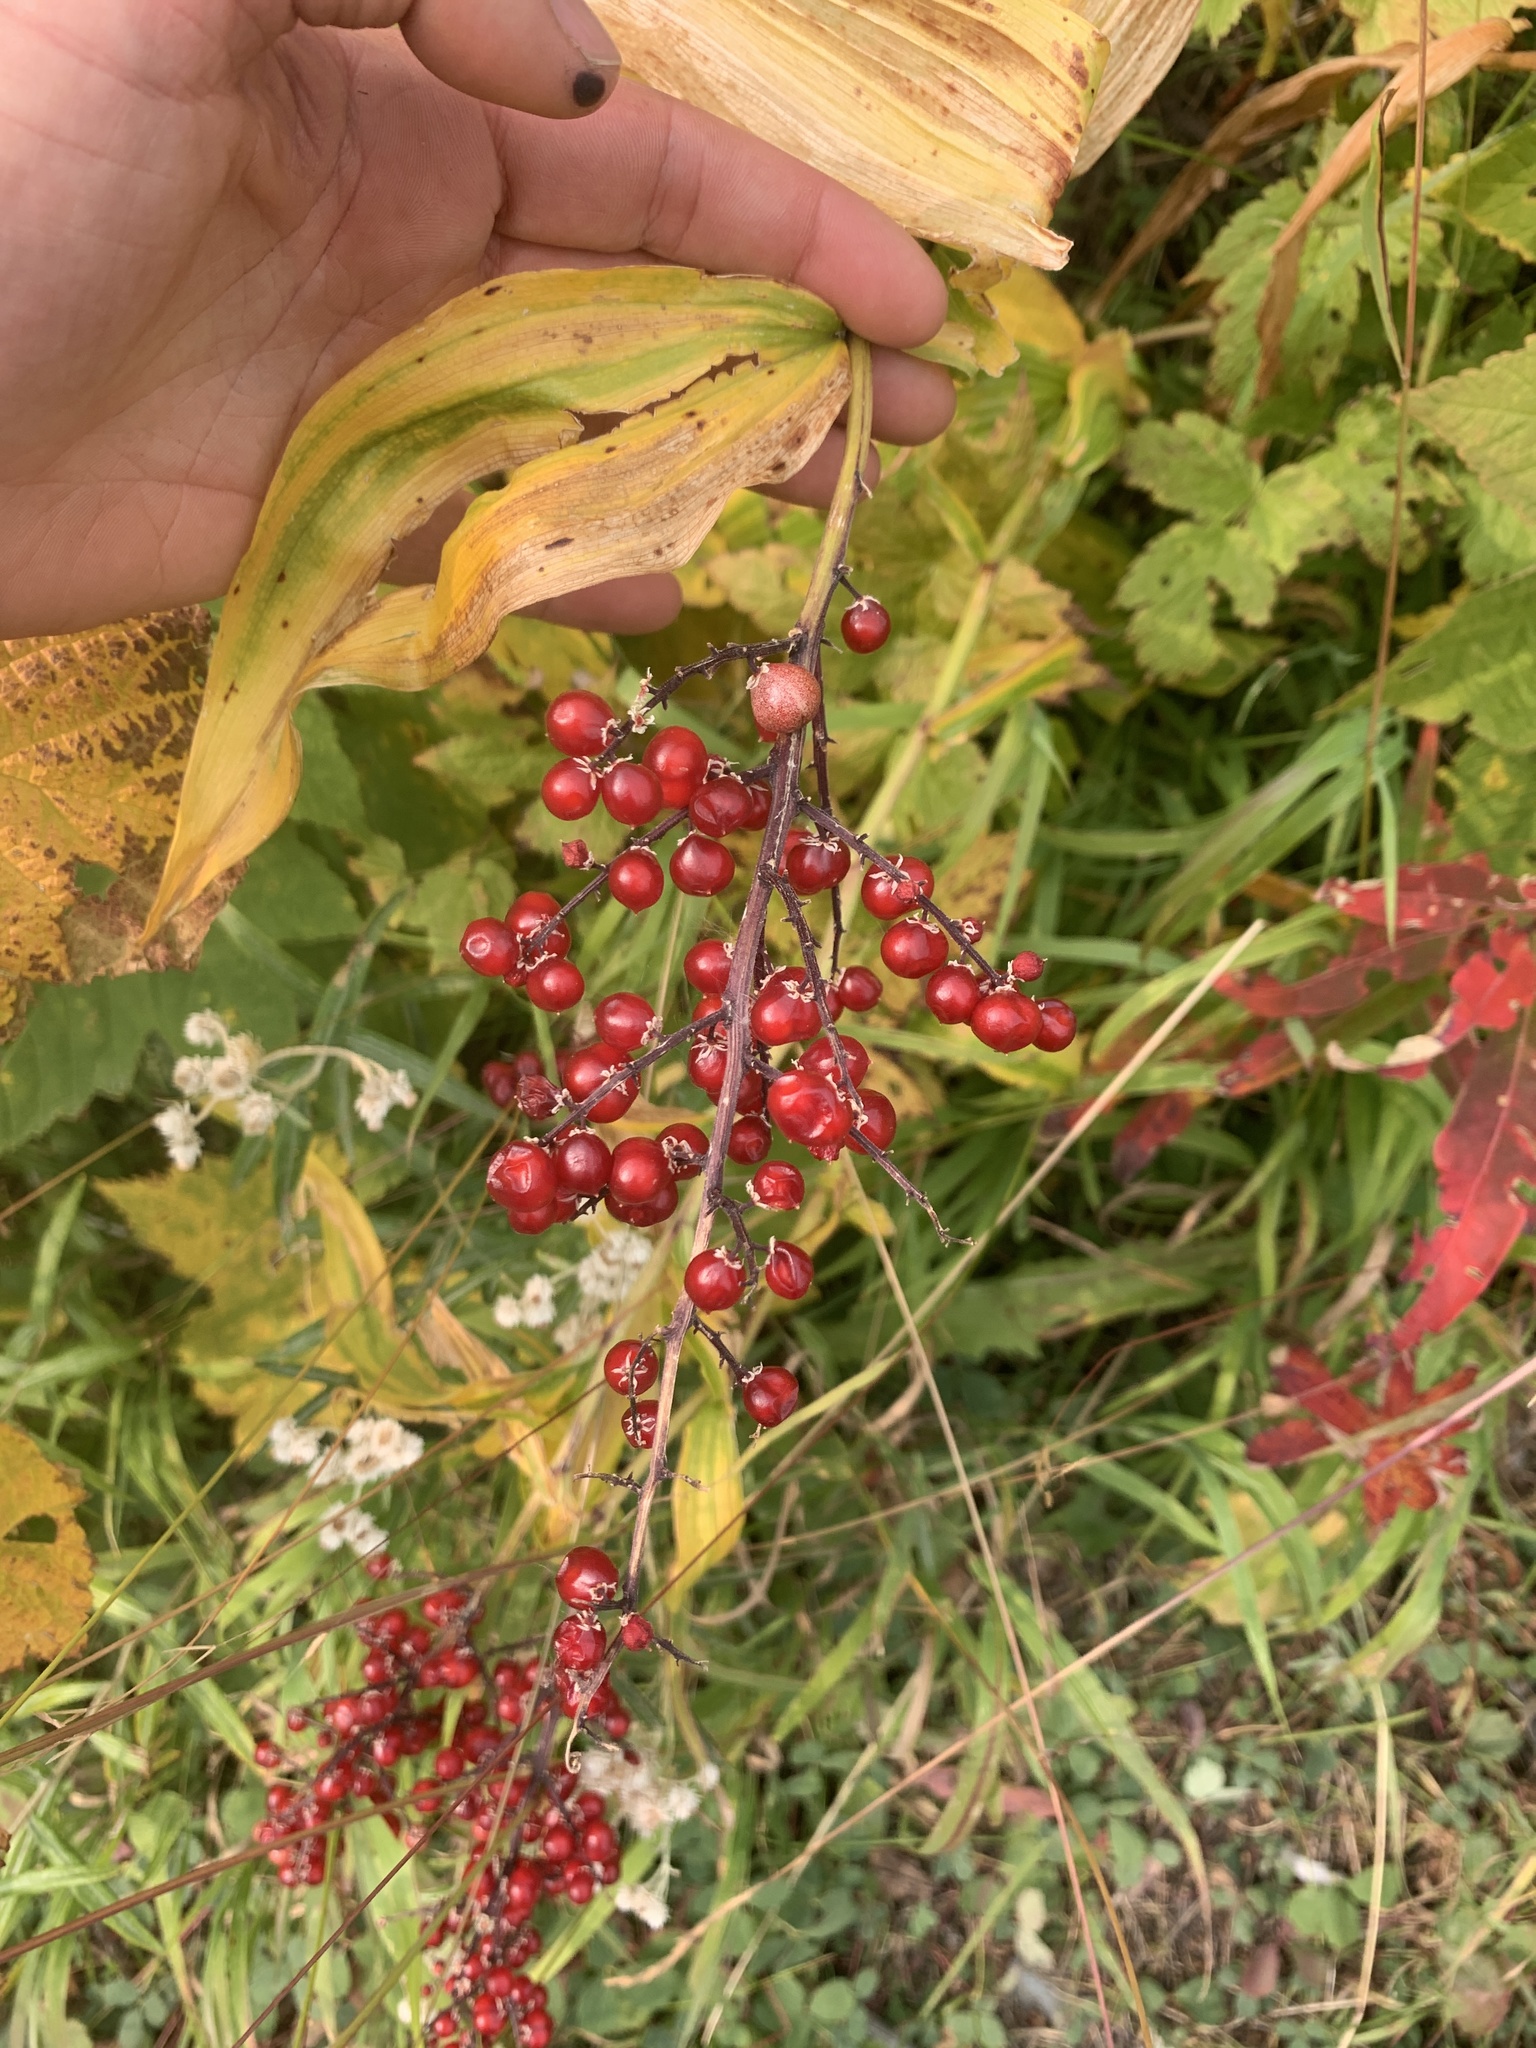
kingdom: Plantae
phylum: Tracheophyta
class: Liliopsida
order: Asparagales
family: Asparagaceae
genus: Maianthemum
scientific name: Maianthemum racemosum
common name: False spikenard
